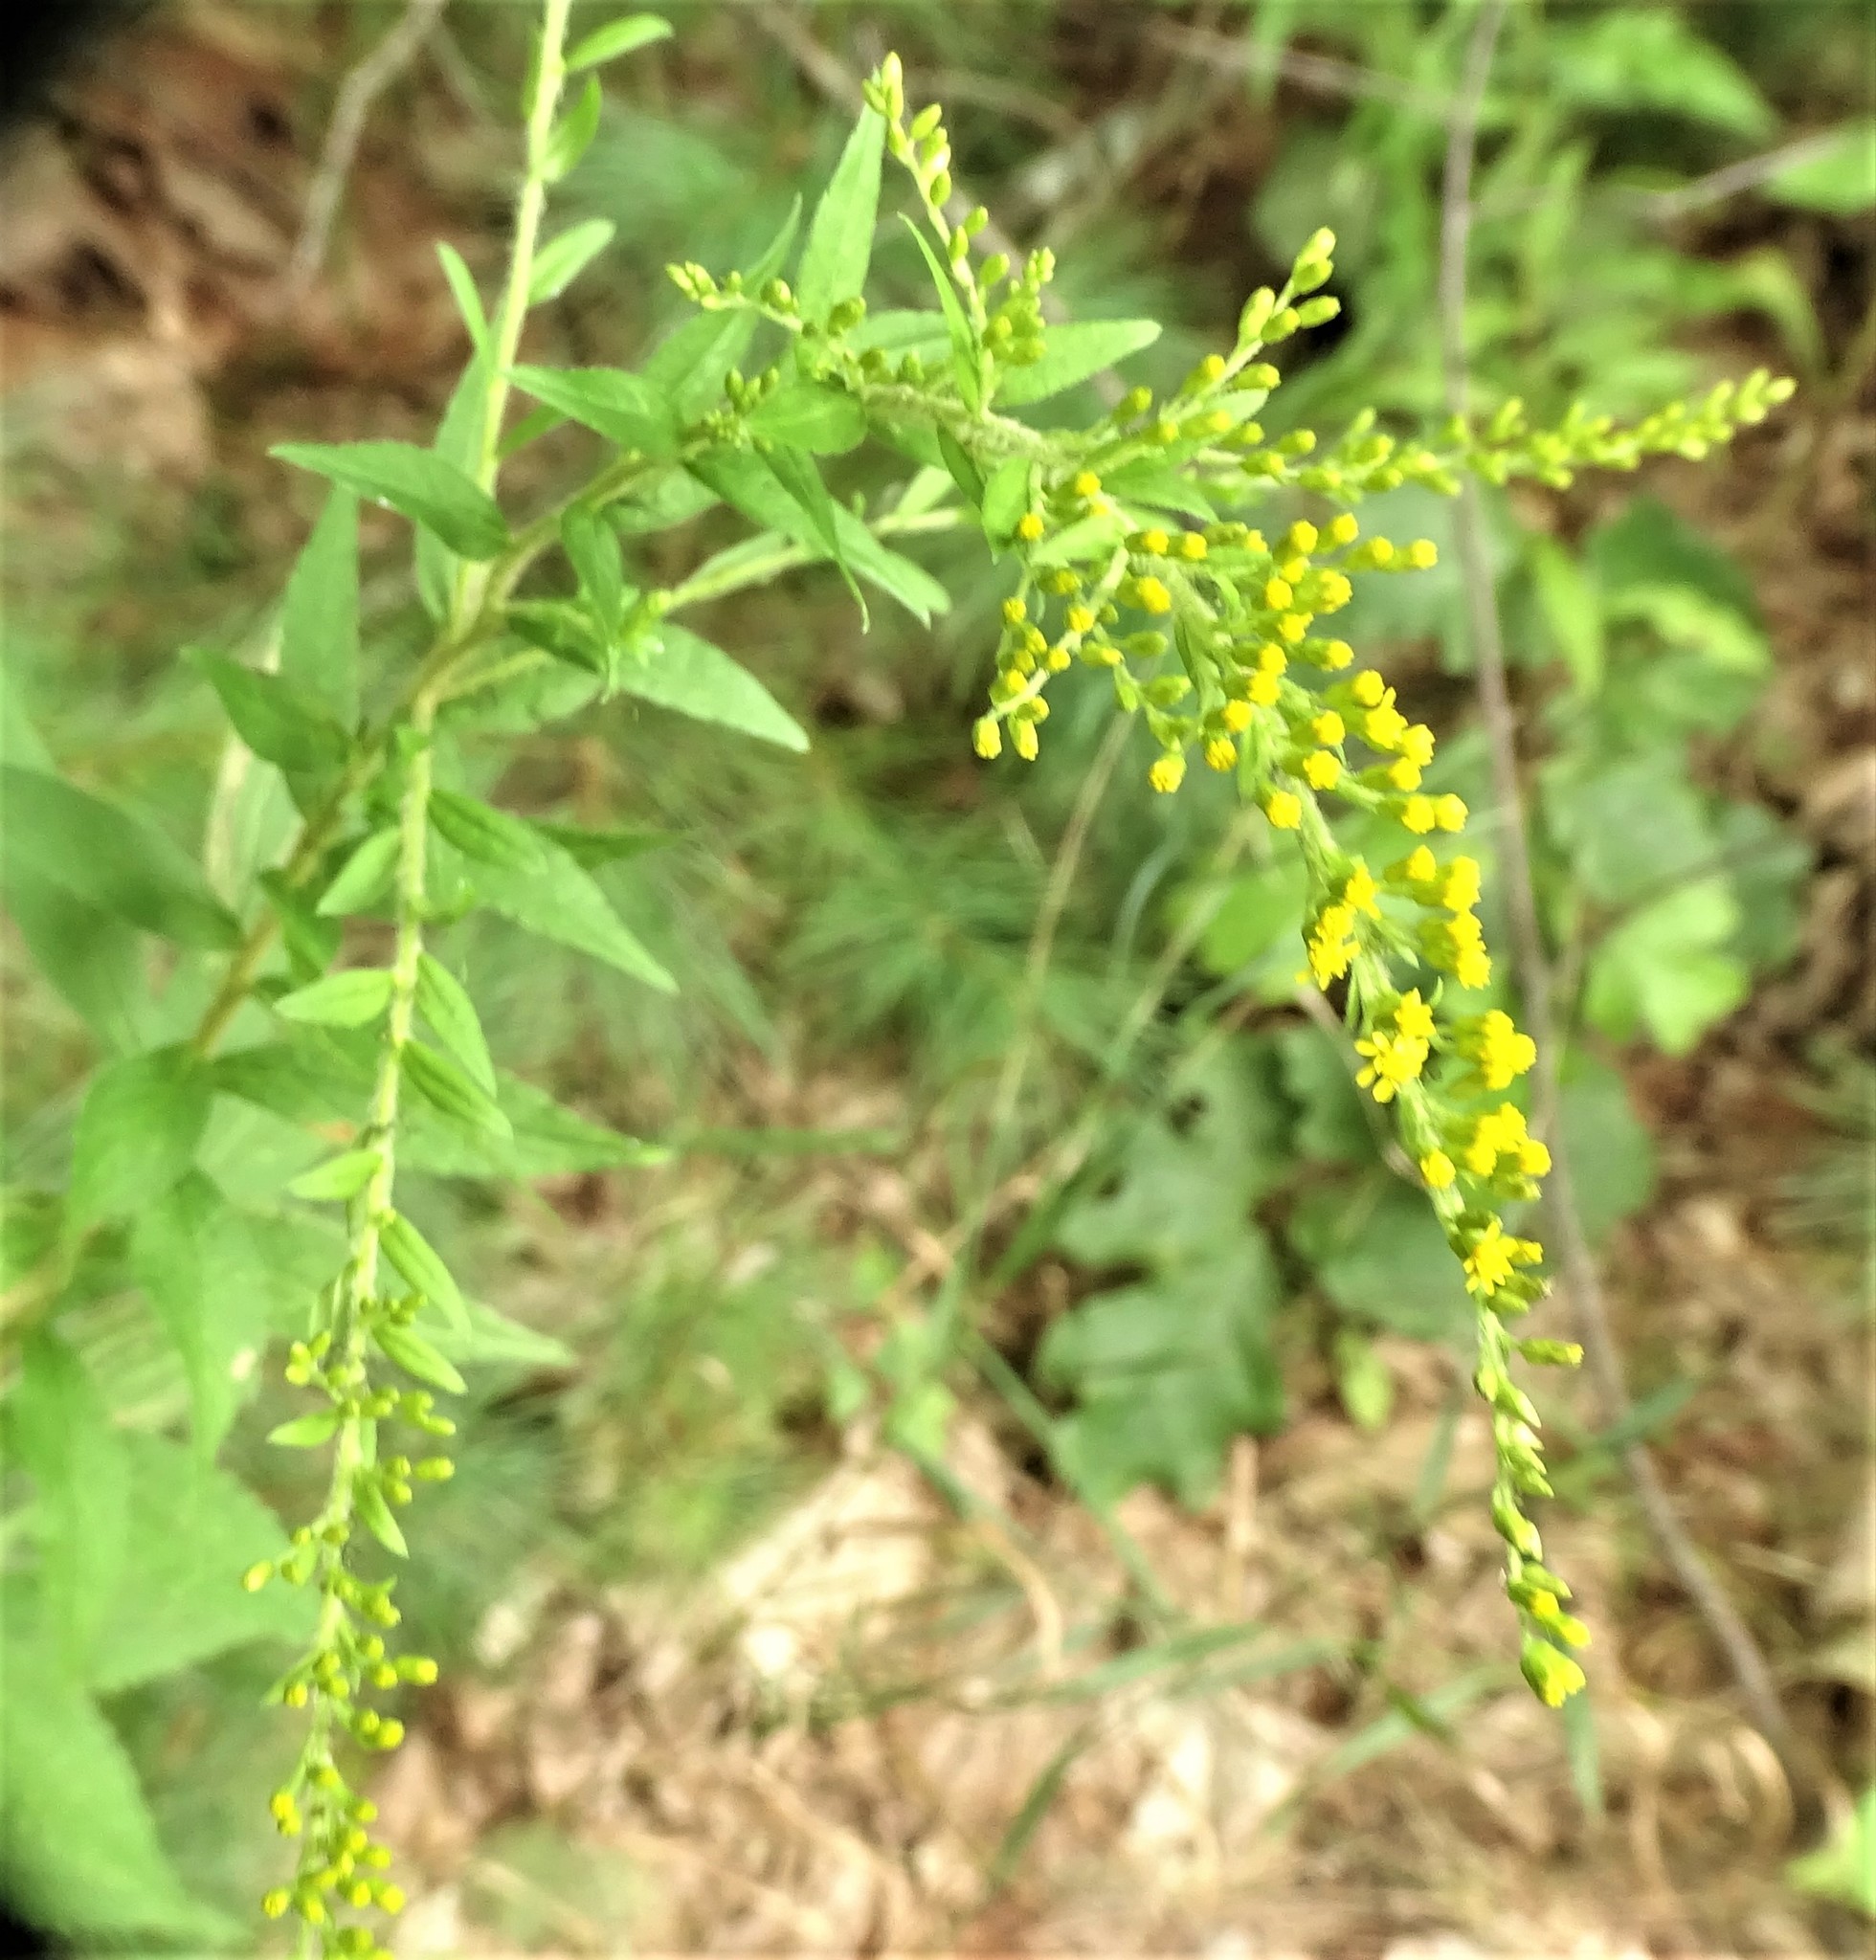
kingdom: Plantae
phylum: Tracheophyta
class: Magnoliopsida
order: Asterales
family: Asteraceae
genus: Solidago
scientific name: Solidago rugosa
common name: Rough-stemmed goldenrod
